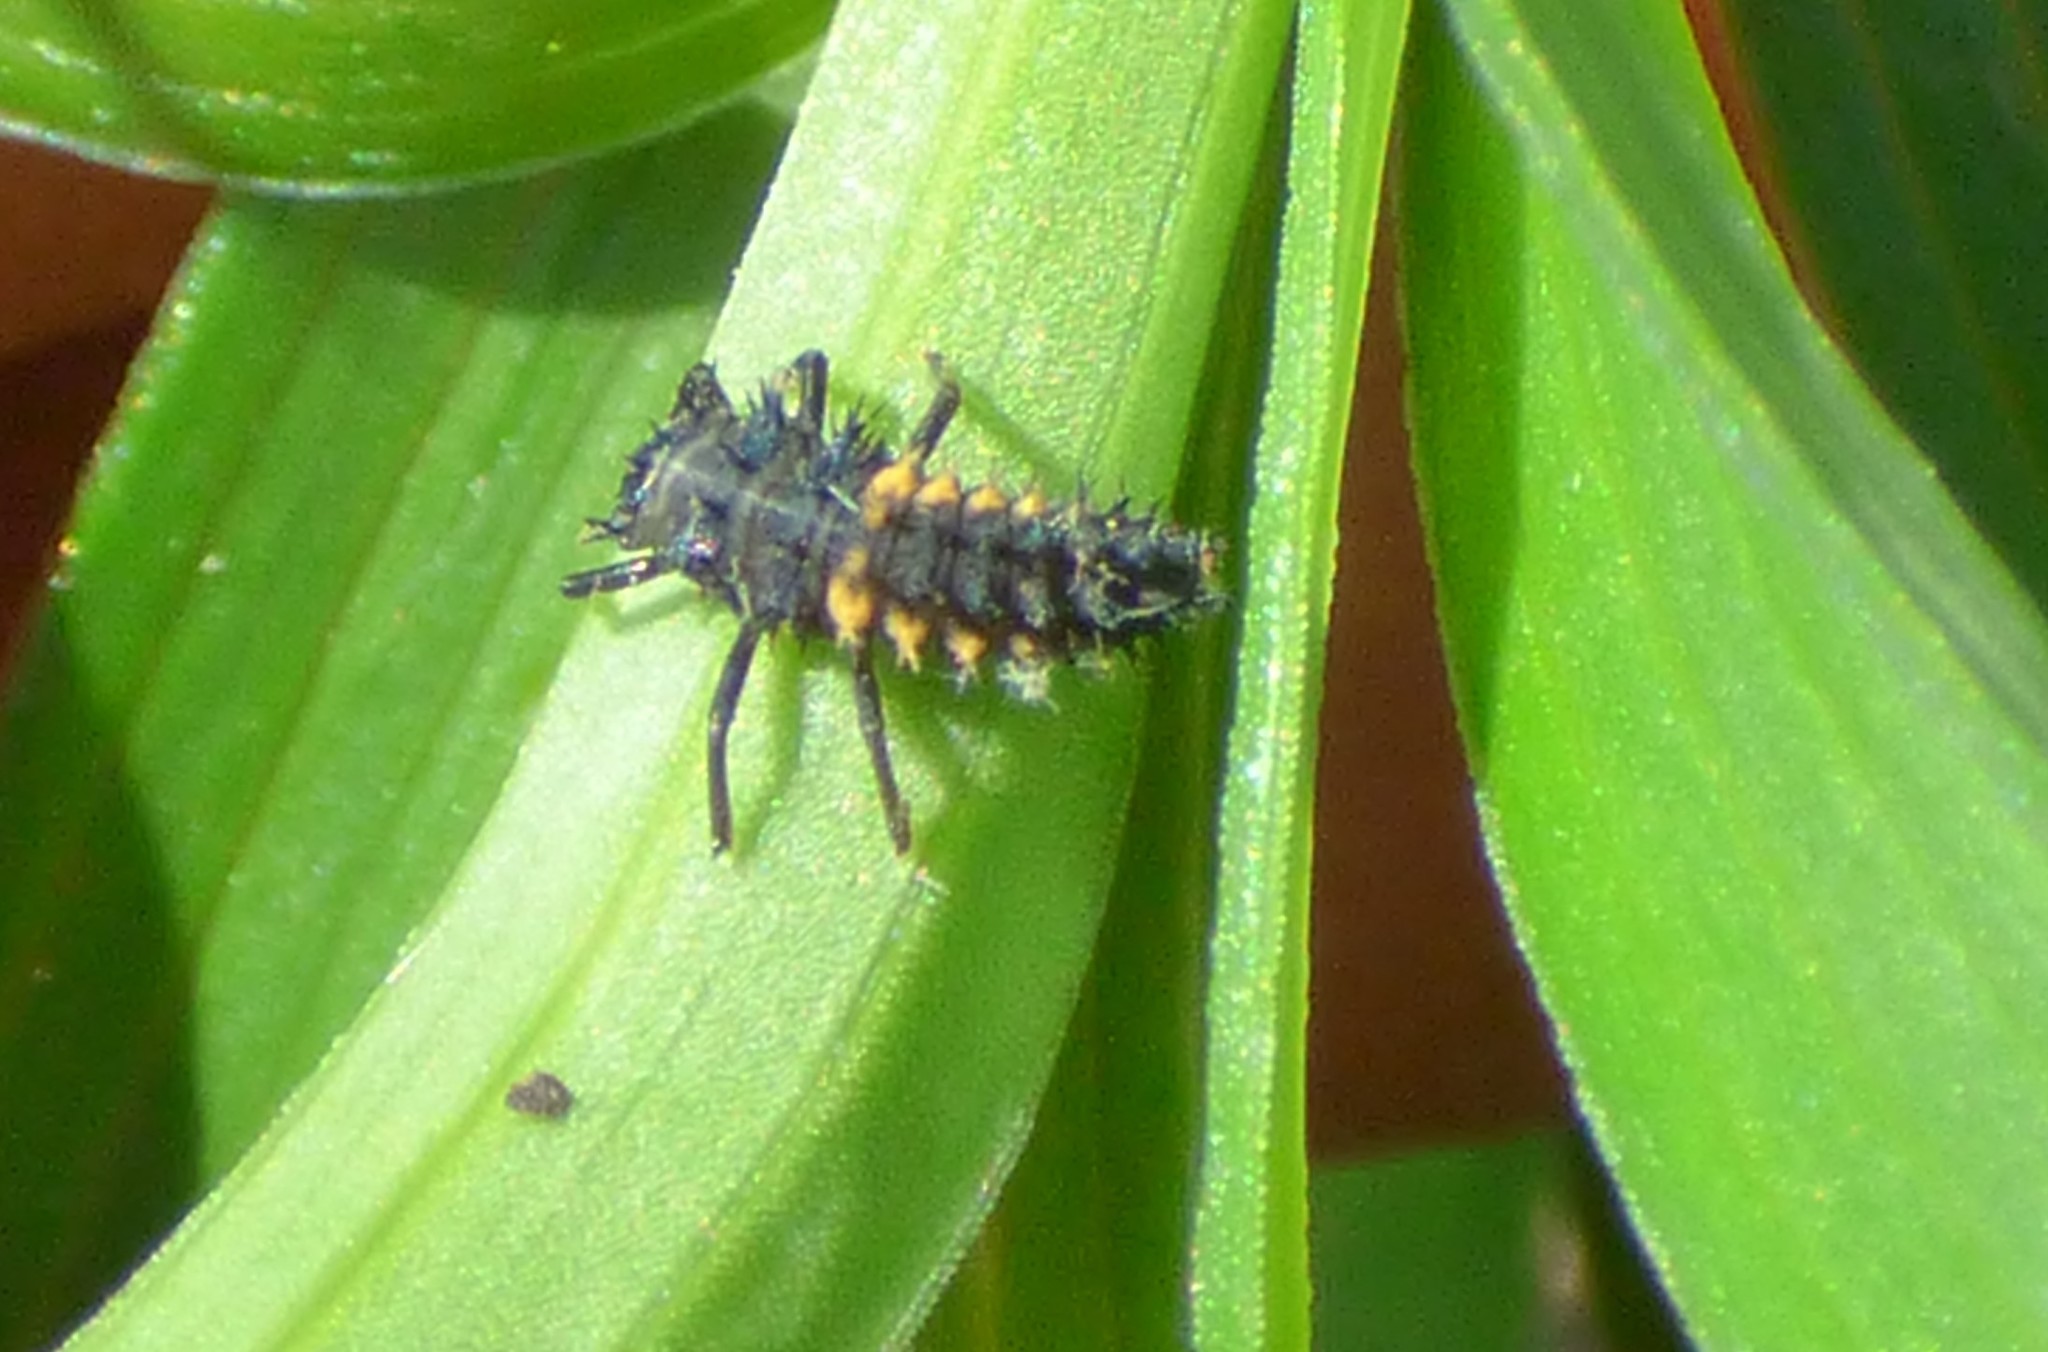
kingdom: Animalia
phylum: Arthropoda
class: Insecta
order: Coleoptera
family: Coccinellidae
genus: Harmonia
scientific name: Harmonia axyridis
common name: Harlequin ladybird
